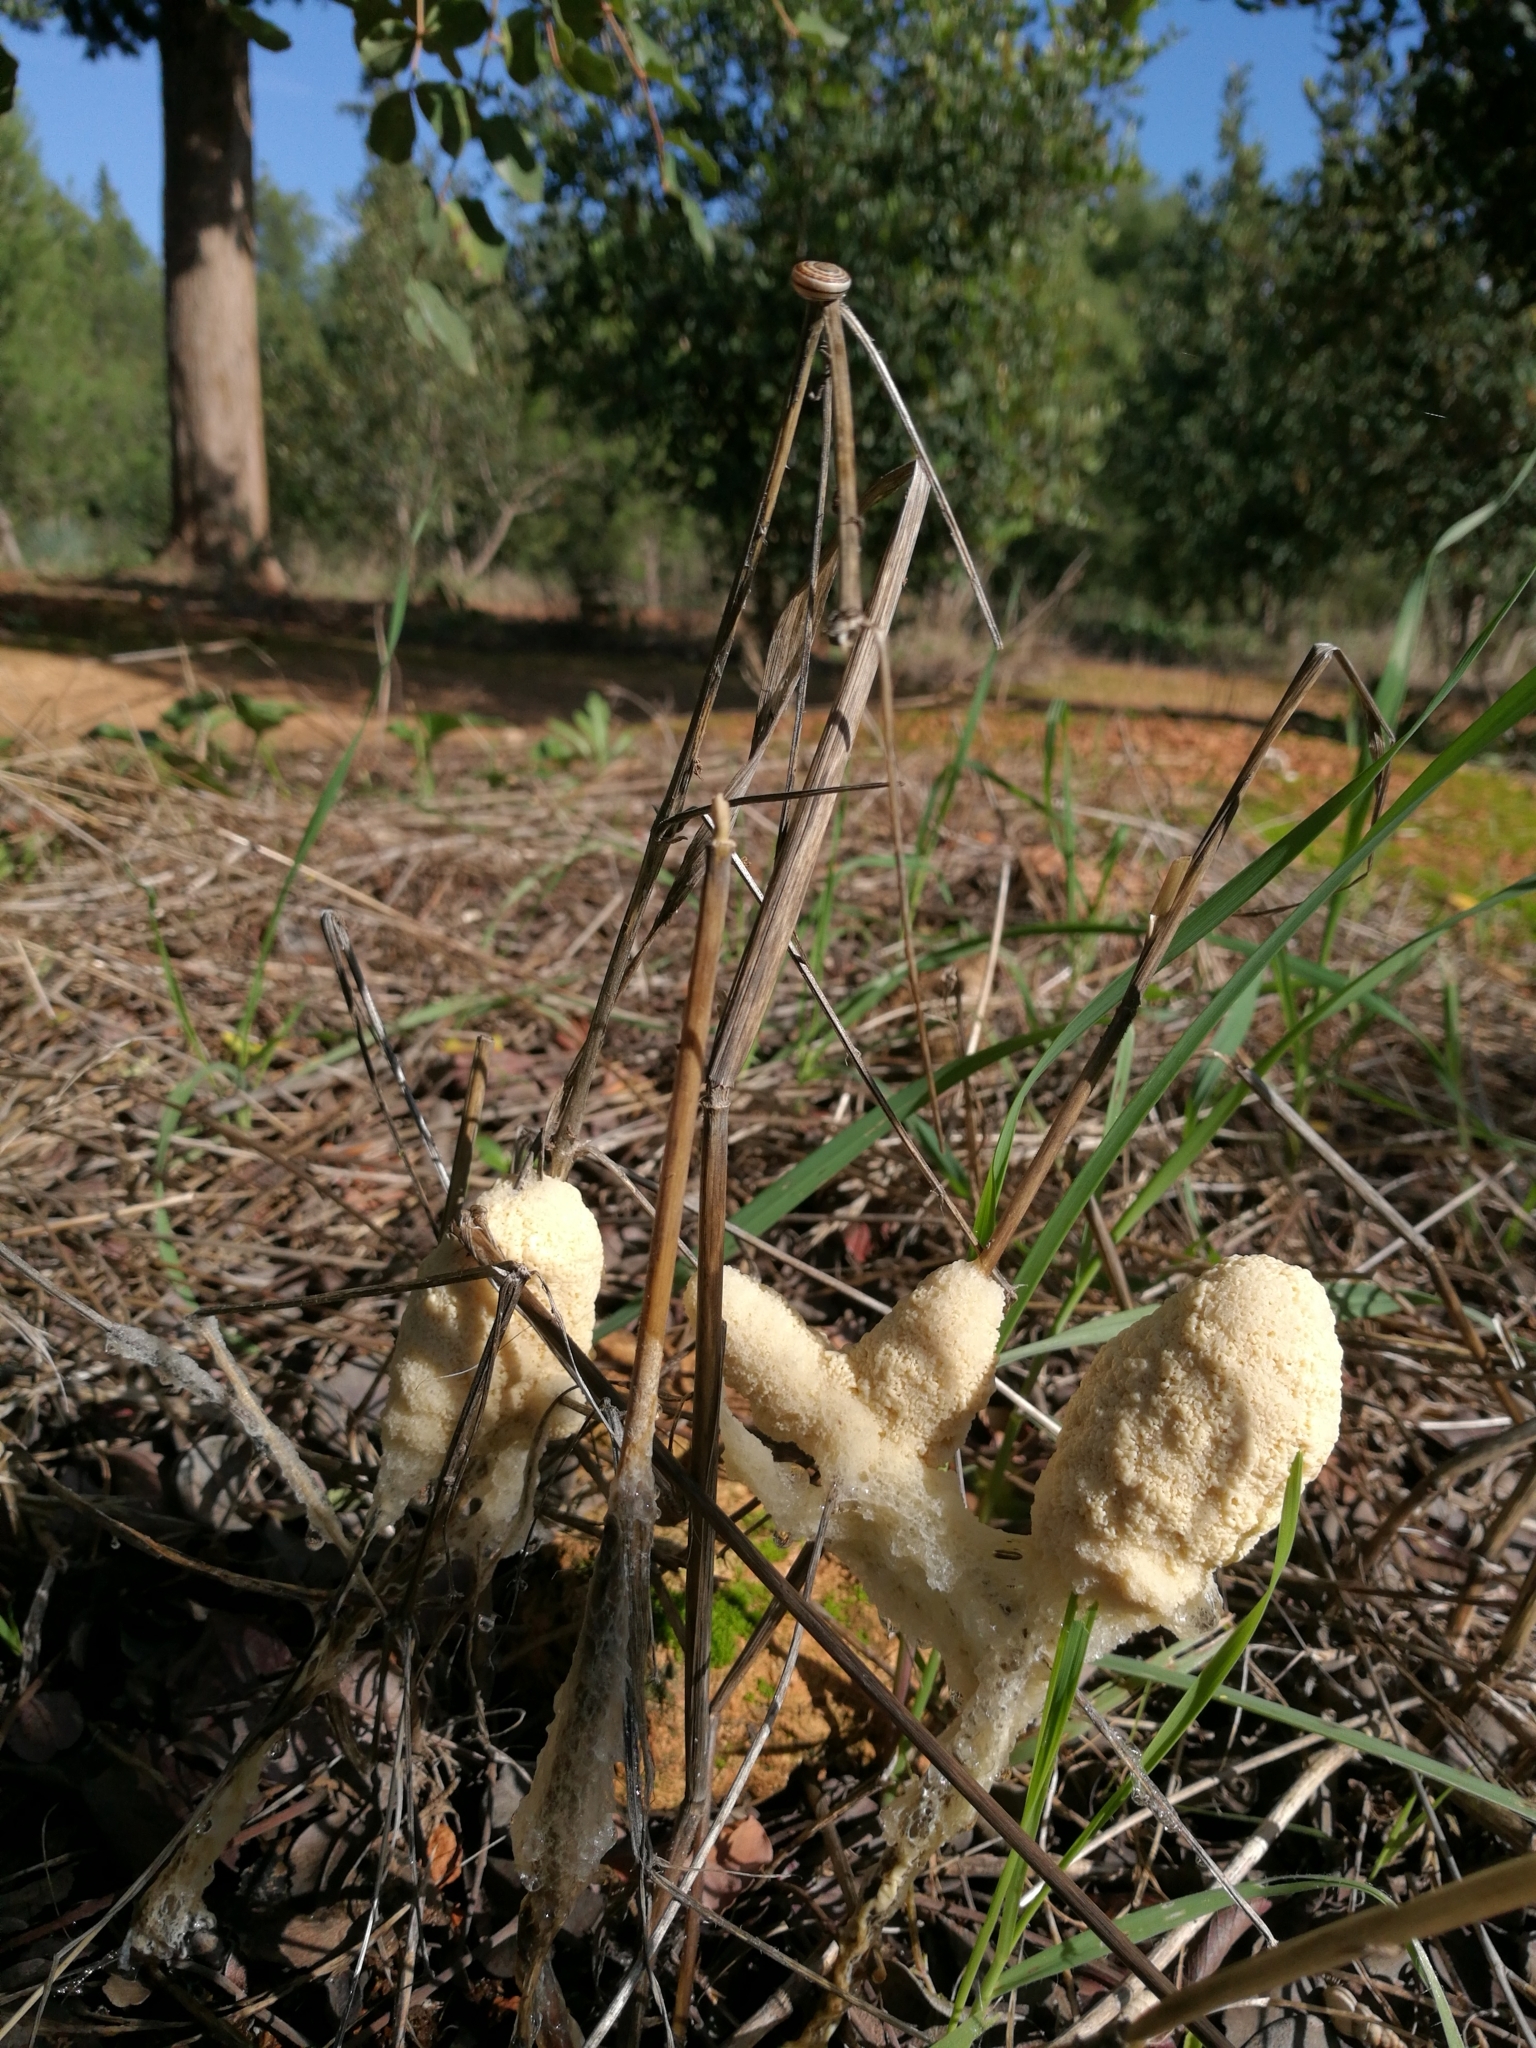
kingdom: Protozoa
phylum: Mycetozoa
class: Myxomycetes
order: Physarales
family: Physaraceae
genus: Didymium
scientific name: Didymium
